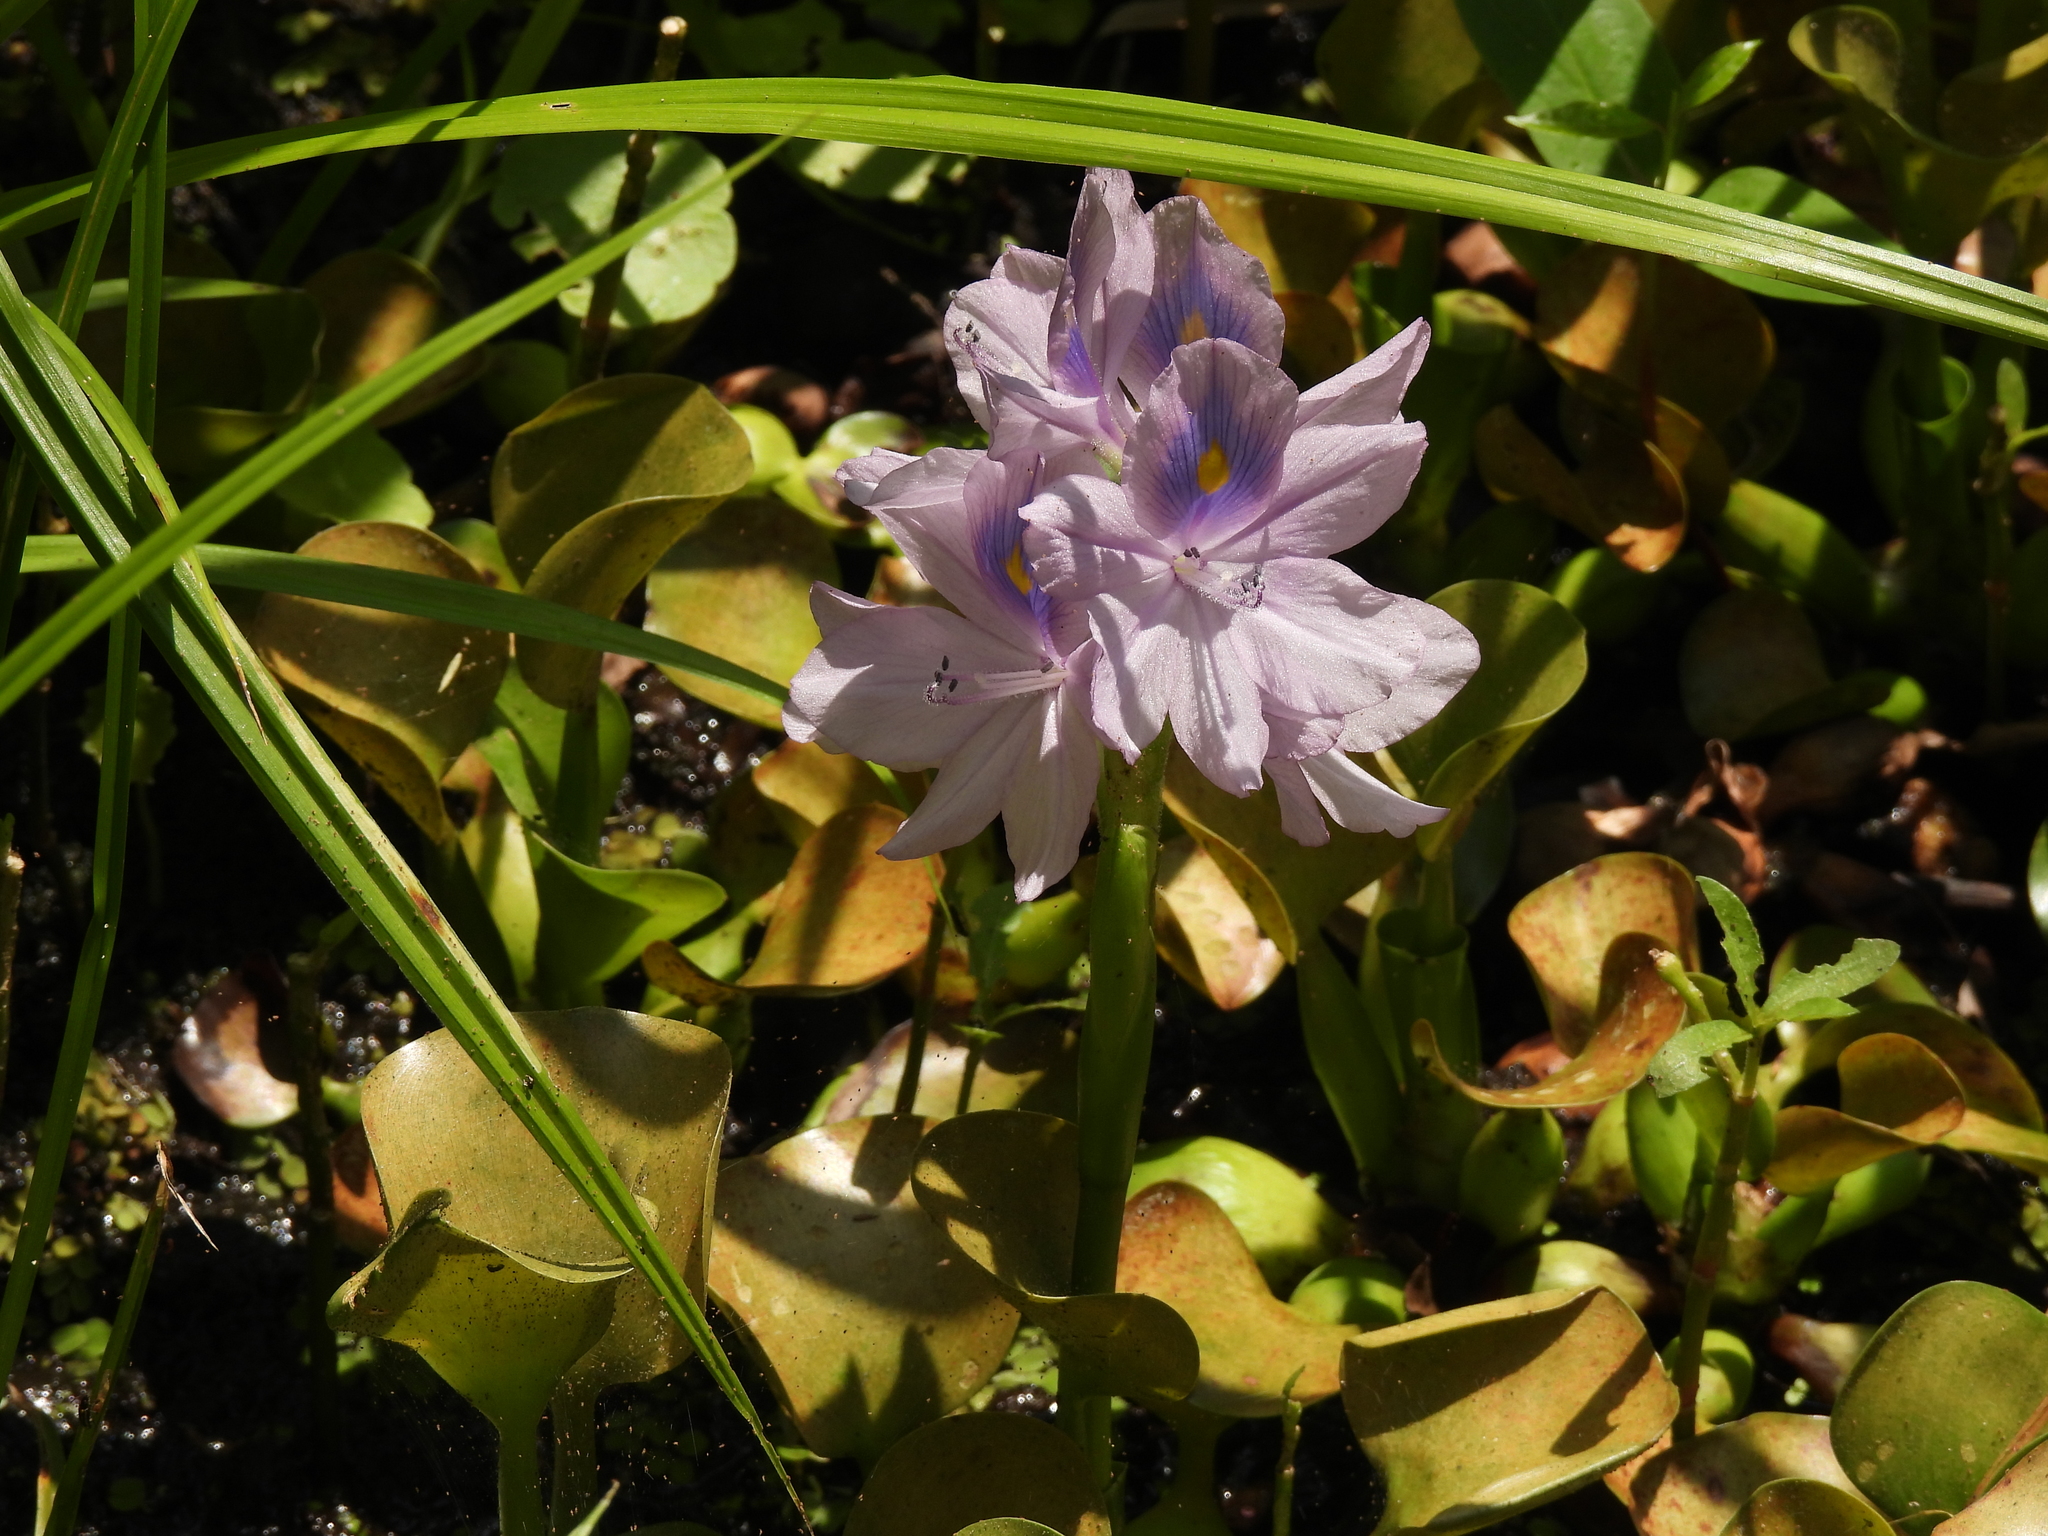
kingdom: Plantae
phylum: Tracheophyta
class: Liliopsida
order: Commelinales
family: Pontederiaceae
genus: Pontederia
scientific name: Pontederia crassipes
